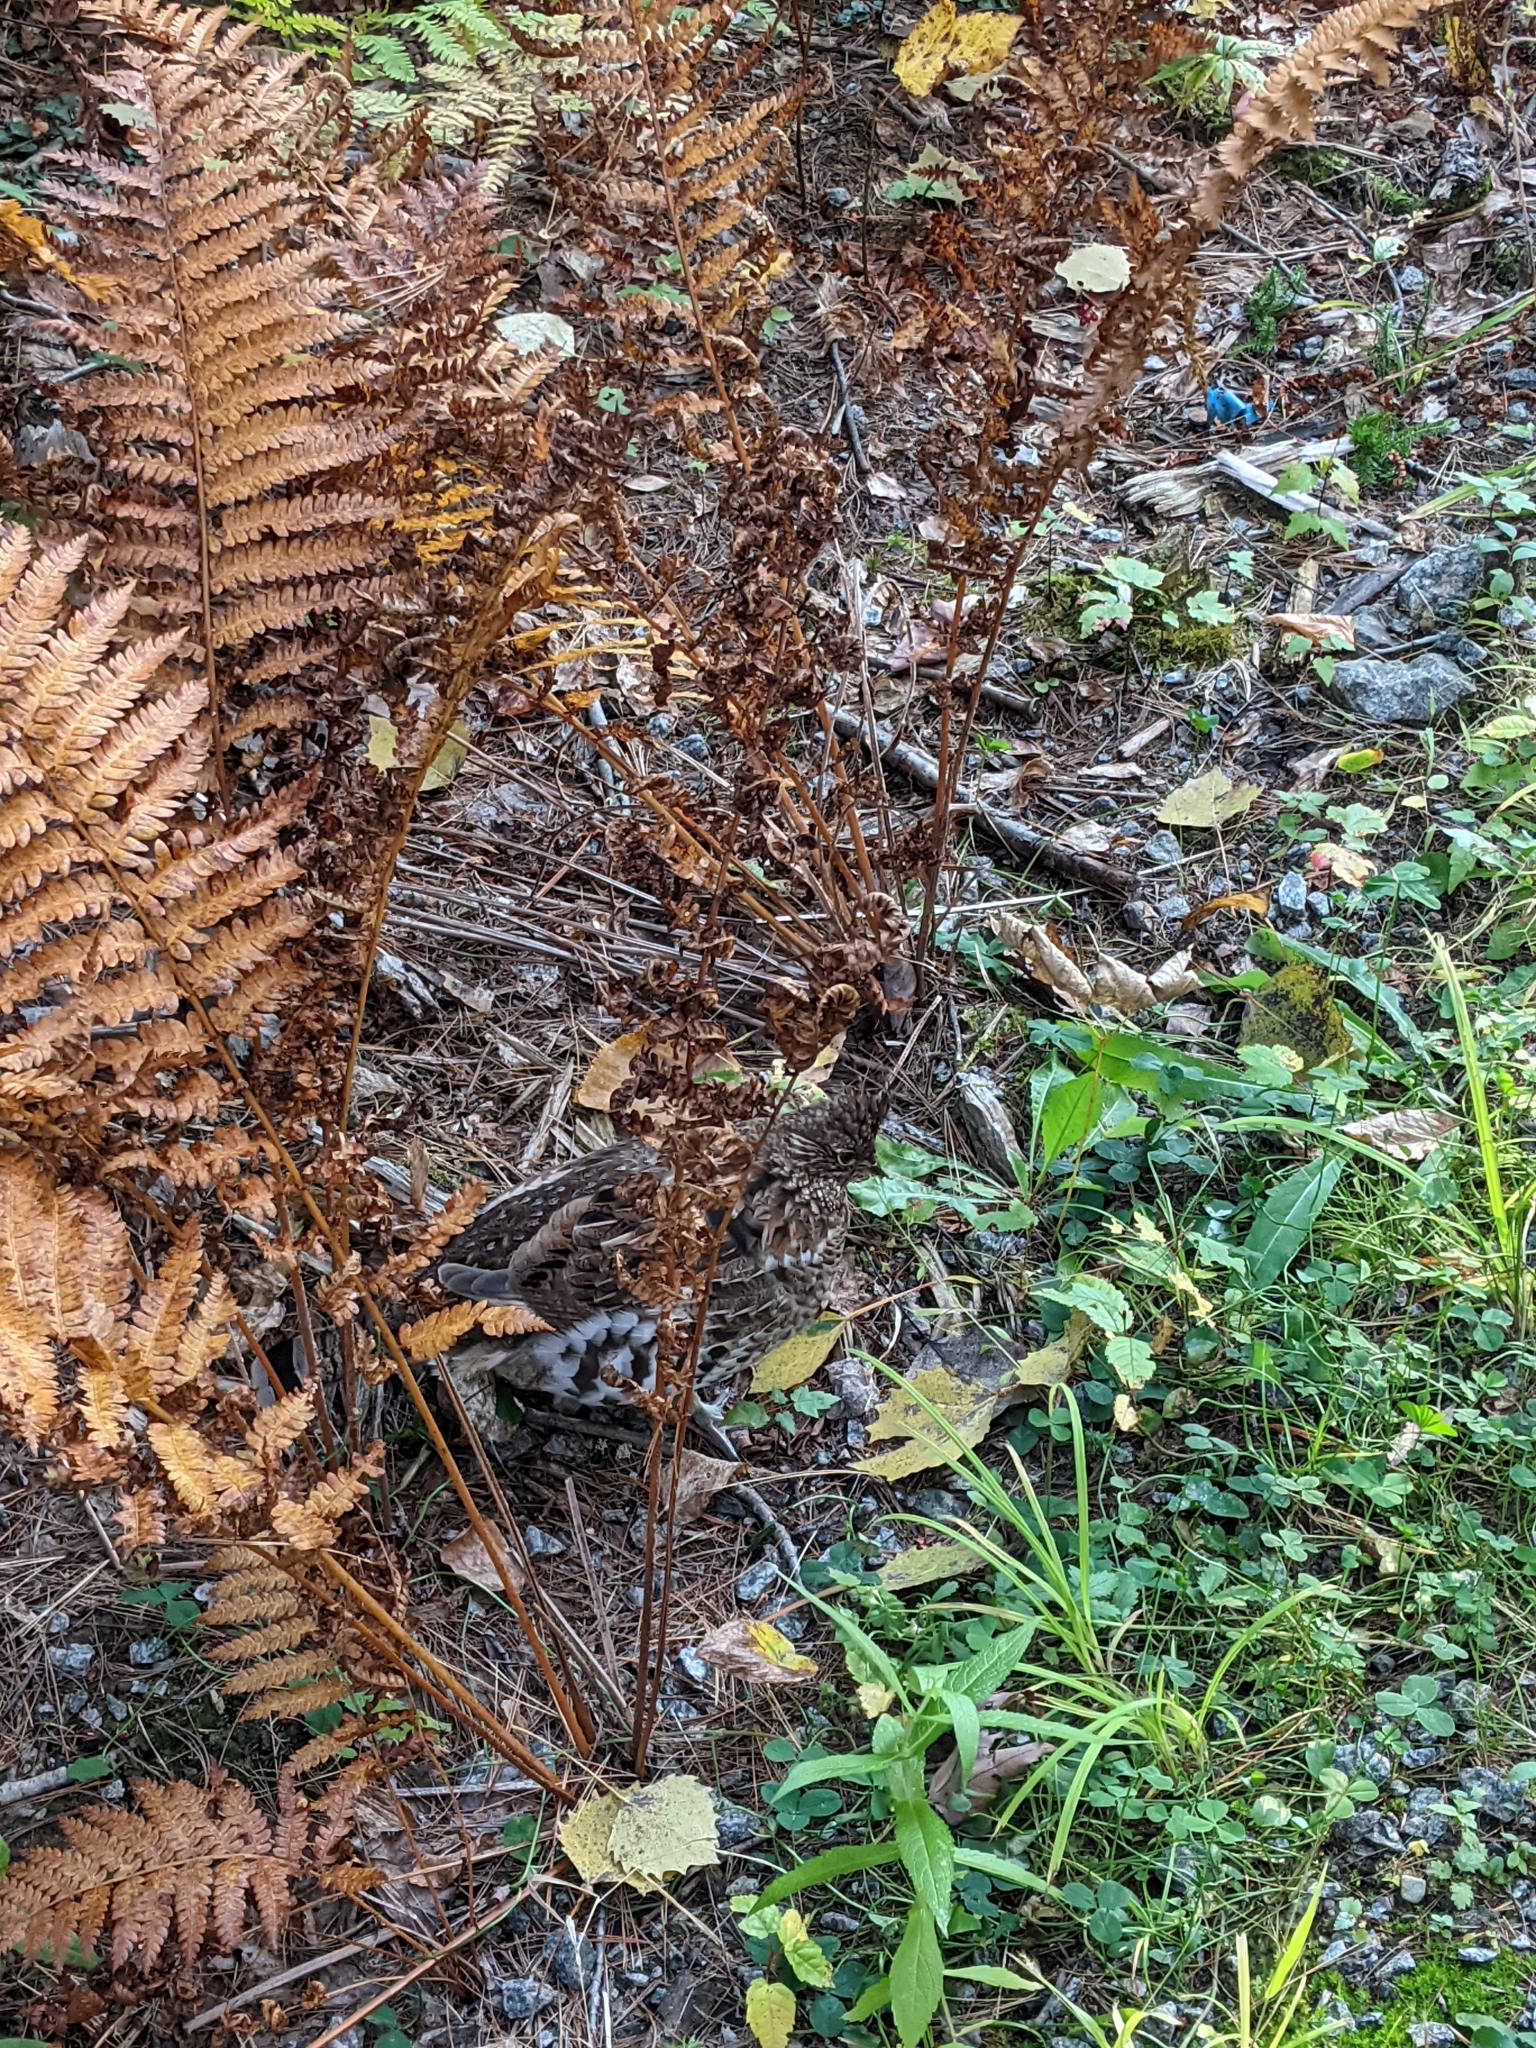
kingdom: Animalia
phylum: Chordata
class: Aves
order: Galliformes
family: Phasianidae
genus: Bonasa
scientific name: Bonasa umbellus
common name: Ruffed grouse
